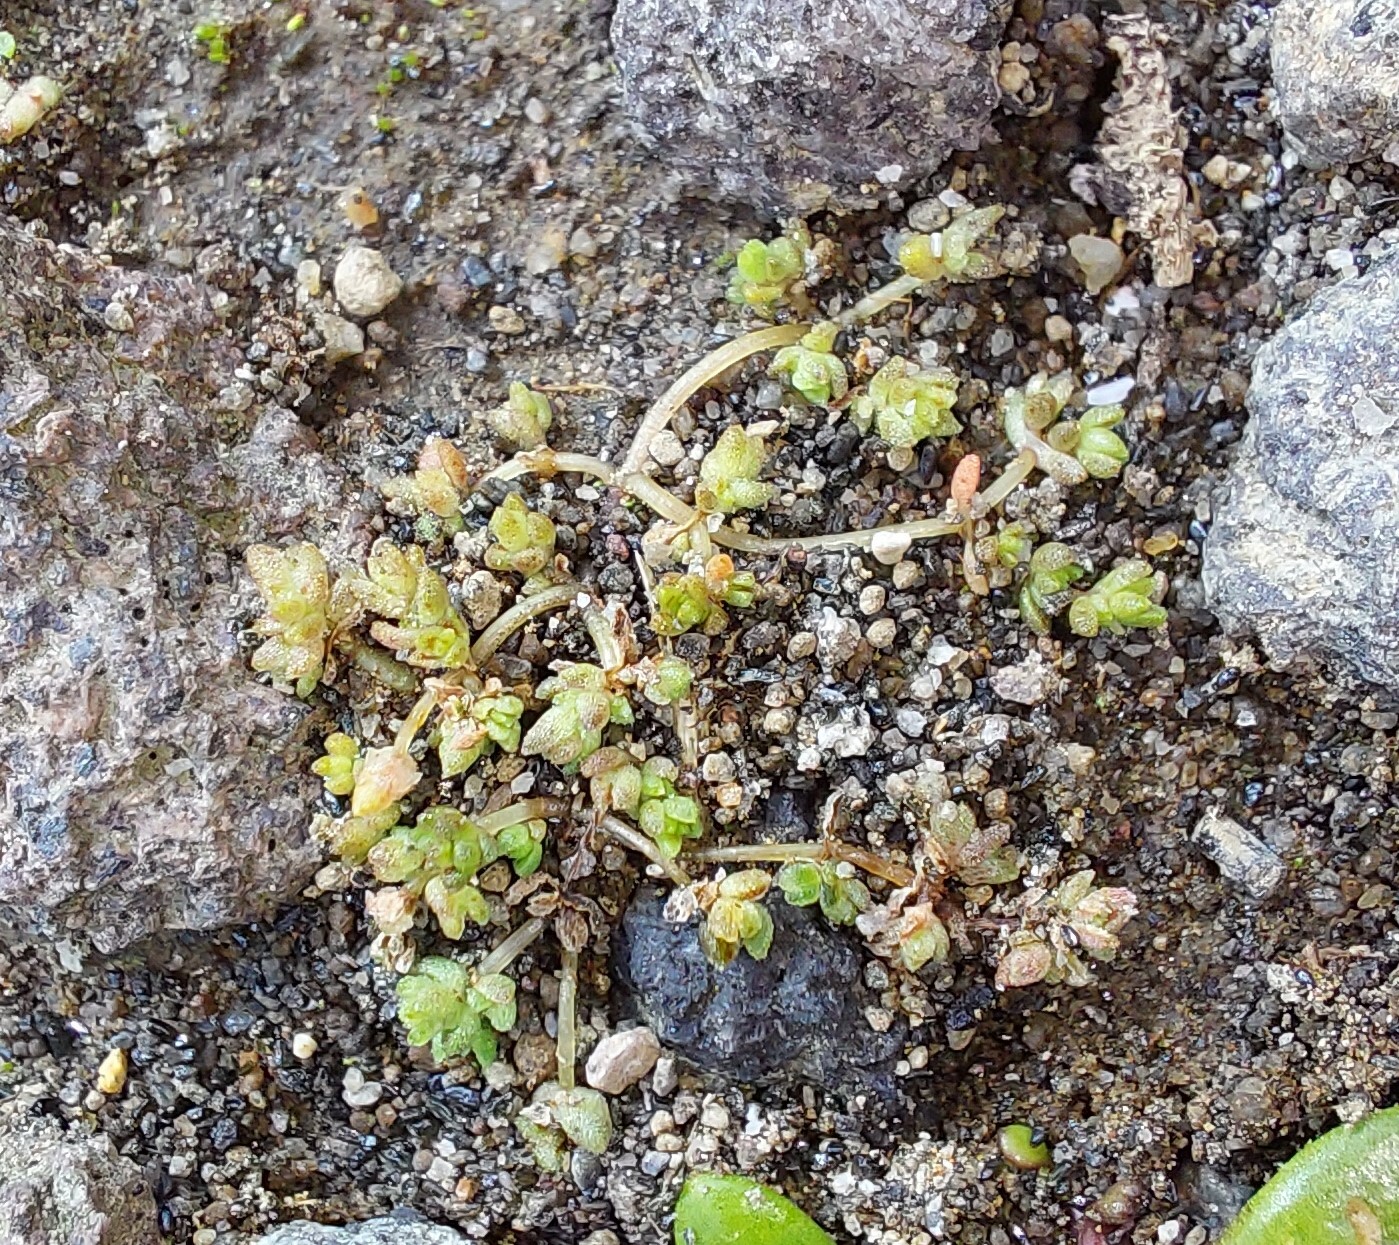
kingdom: Plantae
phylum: Tracheophyta
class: Magnoliopsida
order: Saxifragales
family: Crassulaceae
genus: Crassula
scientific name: Crassula mataikona
